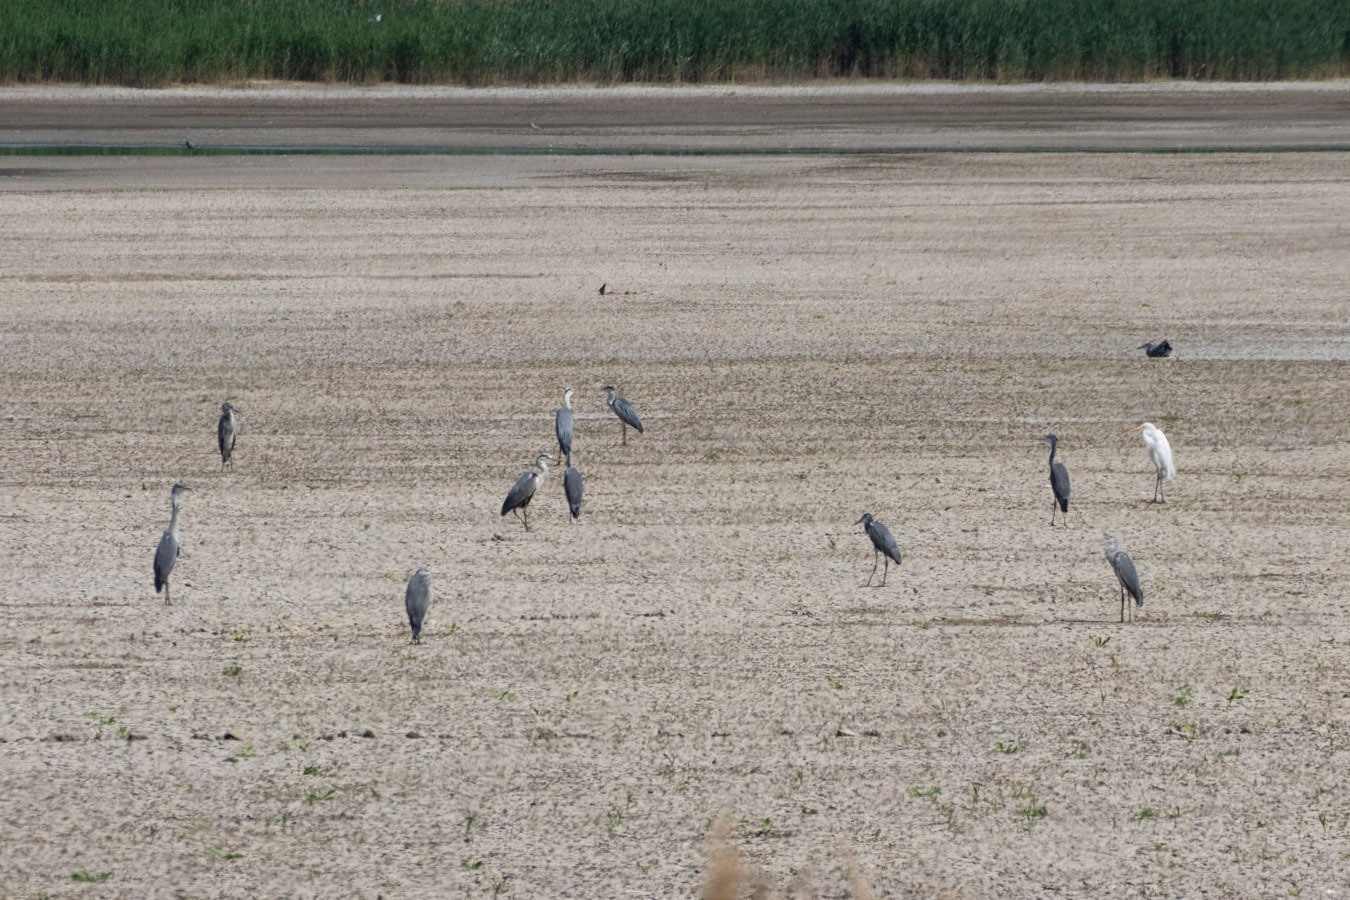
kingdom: Animalia
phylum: Chordata
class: Aves
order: Pelecaniformes
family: Ardeidae
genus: Ardea
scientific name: Ardea cinerea
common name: Grey heron
